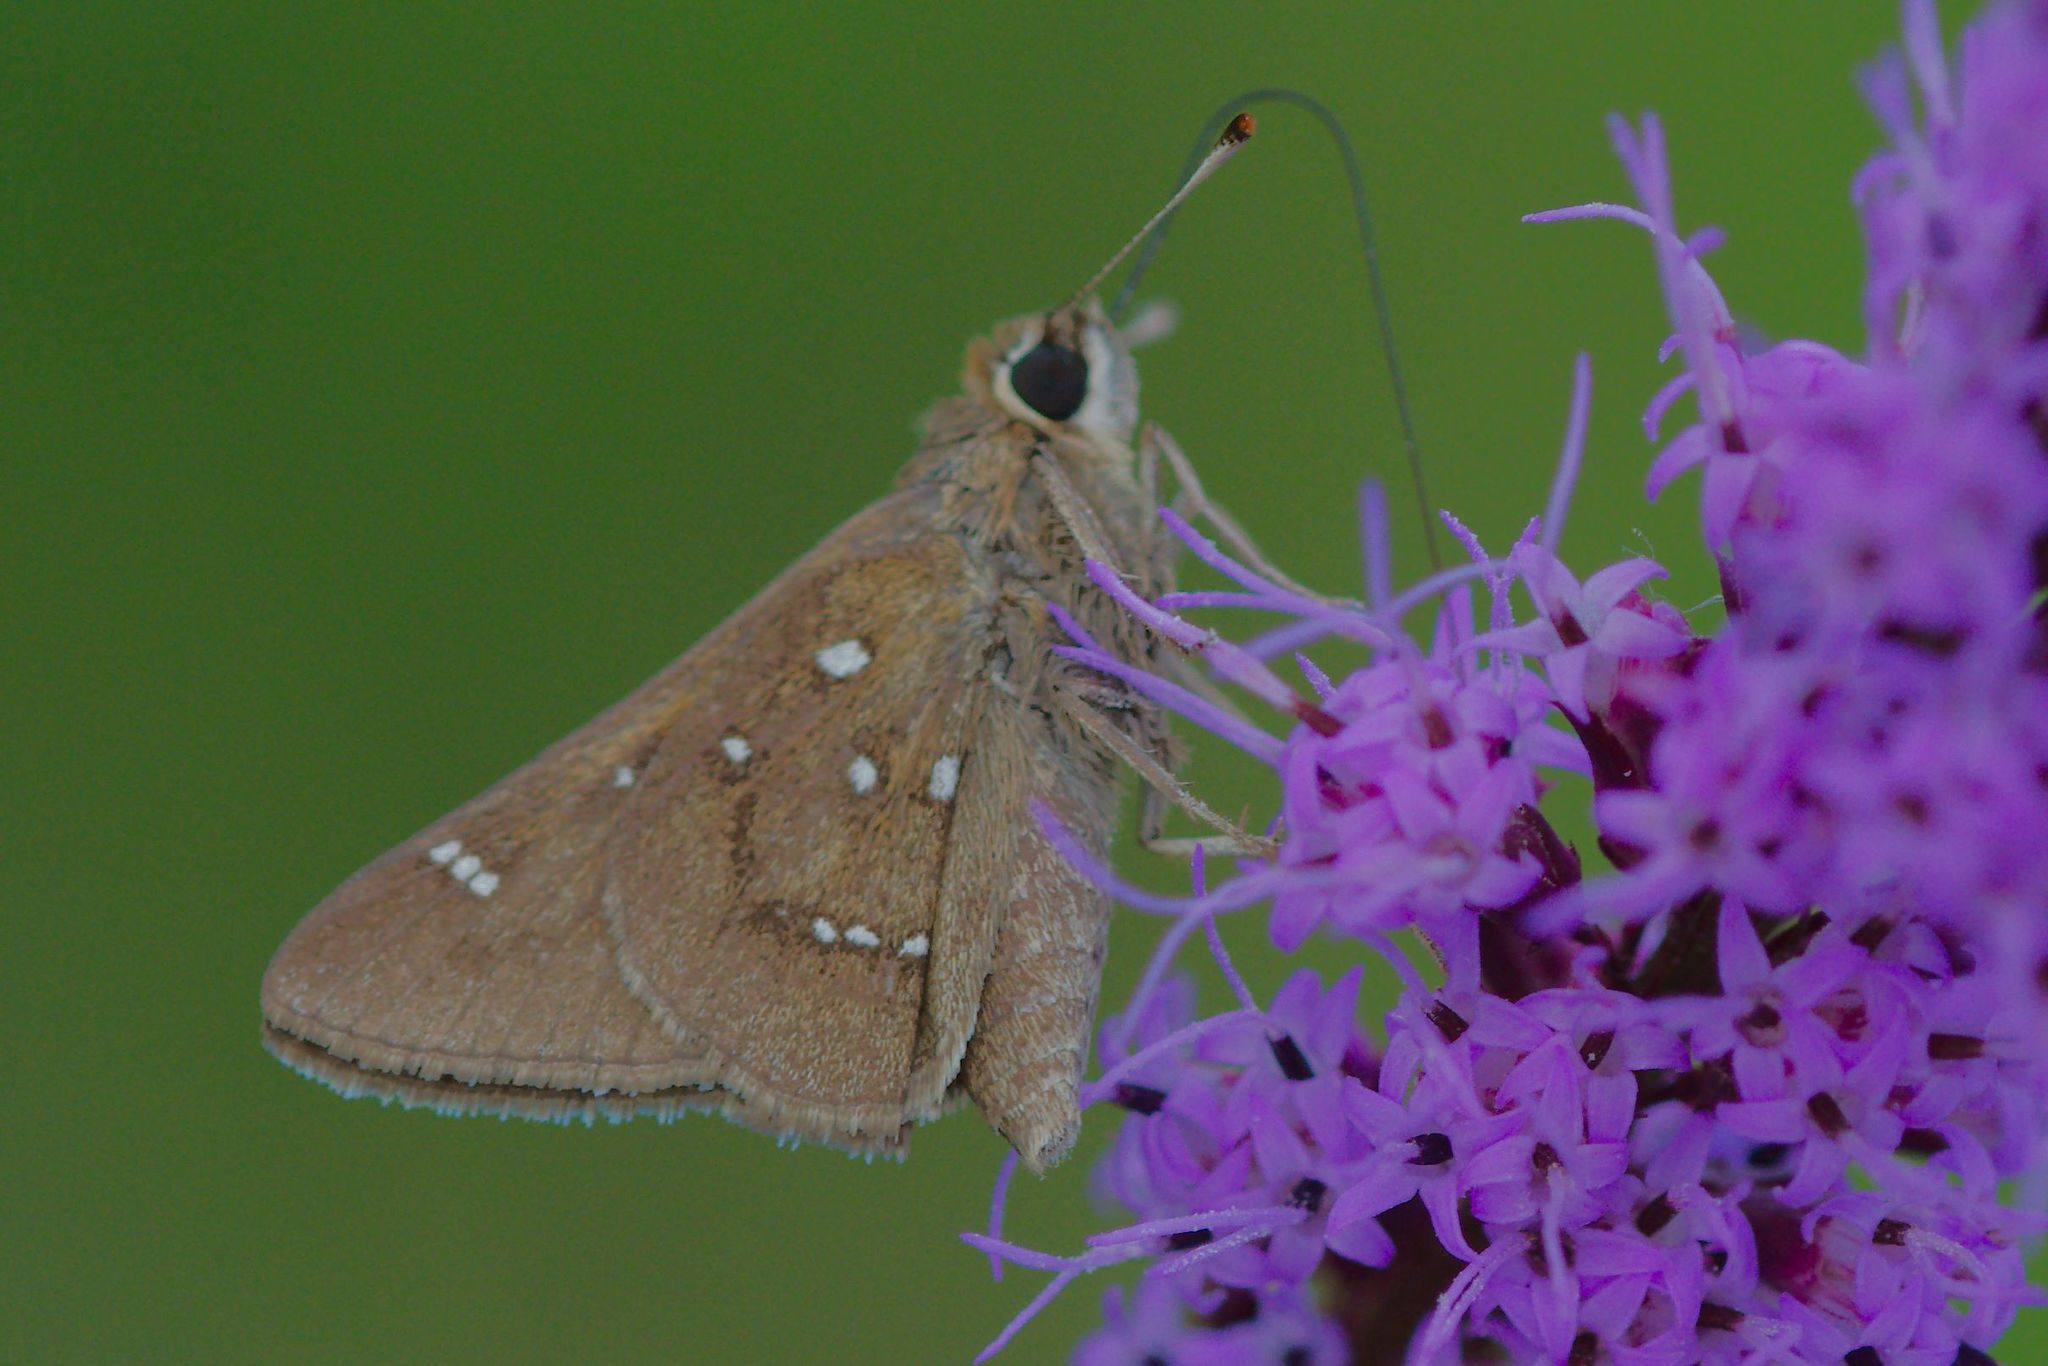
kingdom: Animalia
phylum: Arthropoda
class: Insecta
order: Lepidoptera
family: Hesperiidae
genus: Atrytonopsis
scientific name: Atrytonopsis loammi
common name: Loammi skipper
